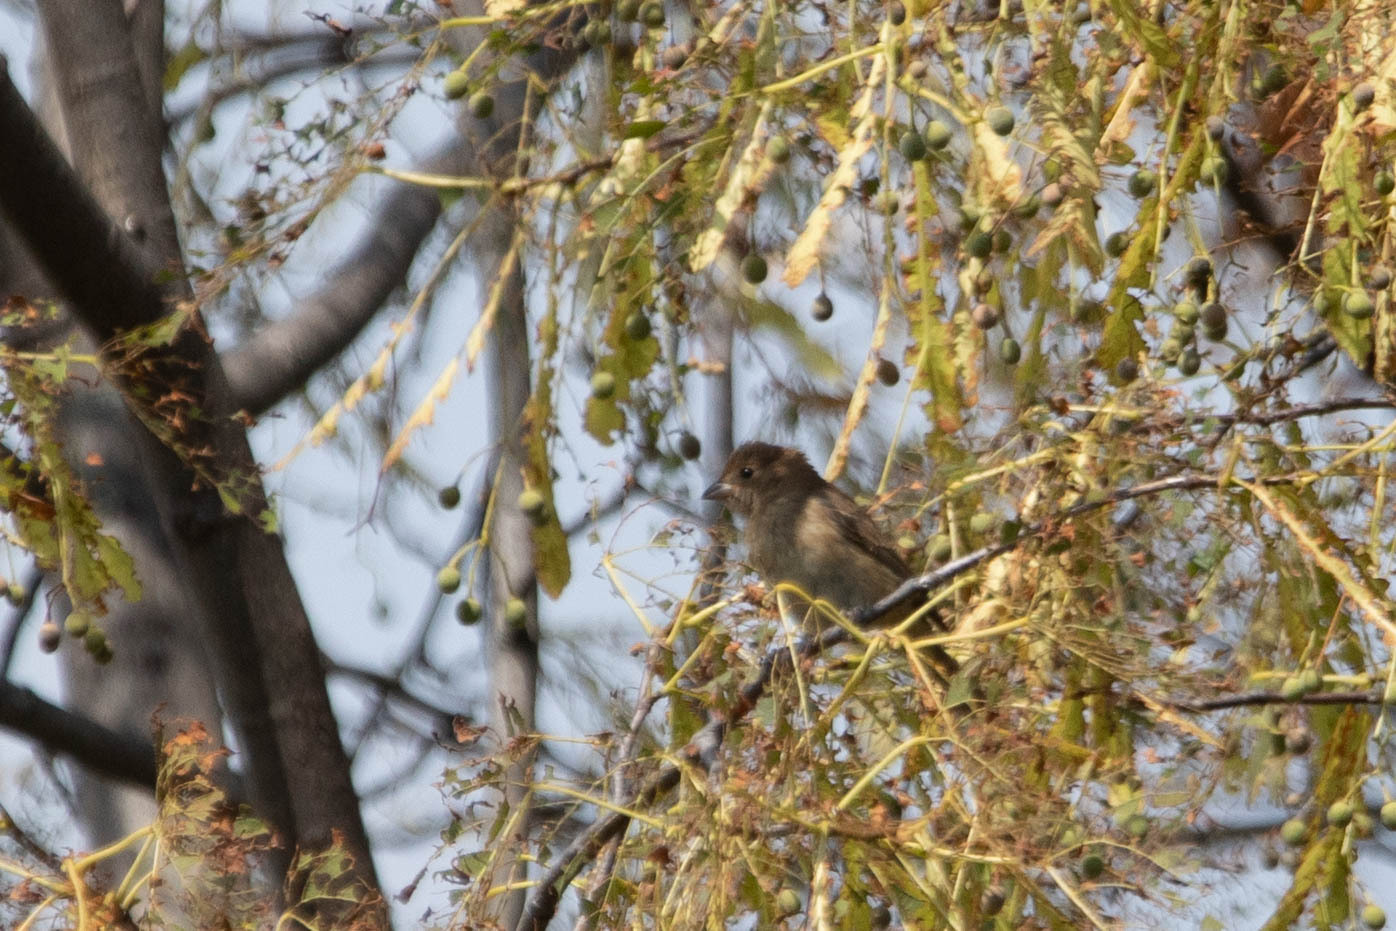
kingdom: Animalia
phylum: Chordata
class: Aves
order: Passeriformes
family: Cardinalidae
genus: Passerina
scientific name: Passerina cyanea
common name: Indigo bunting
